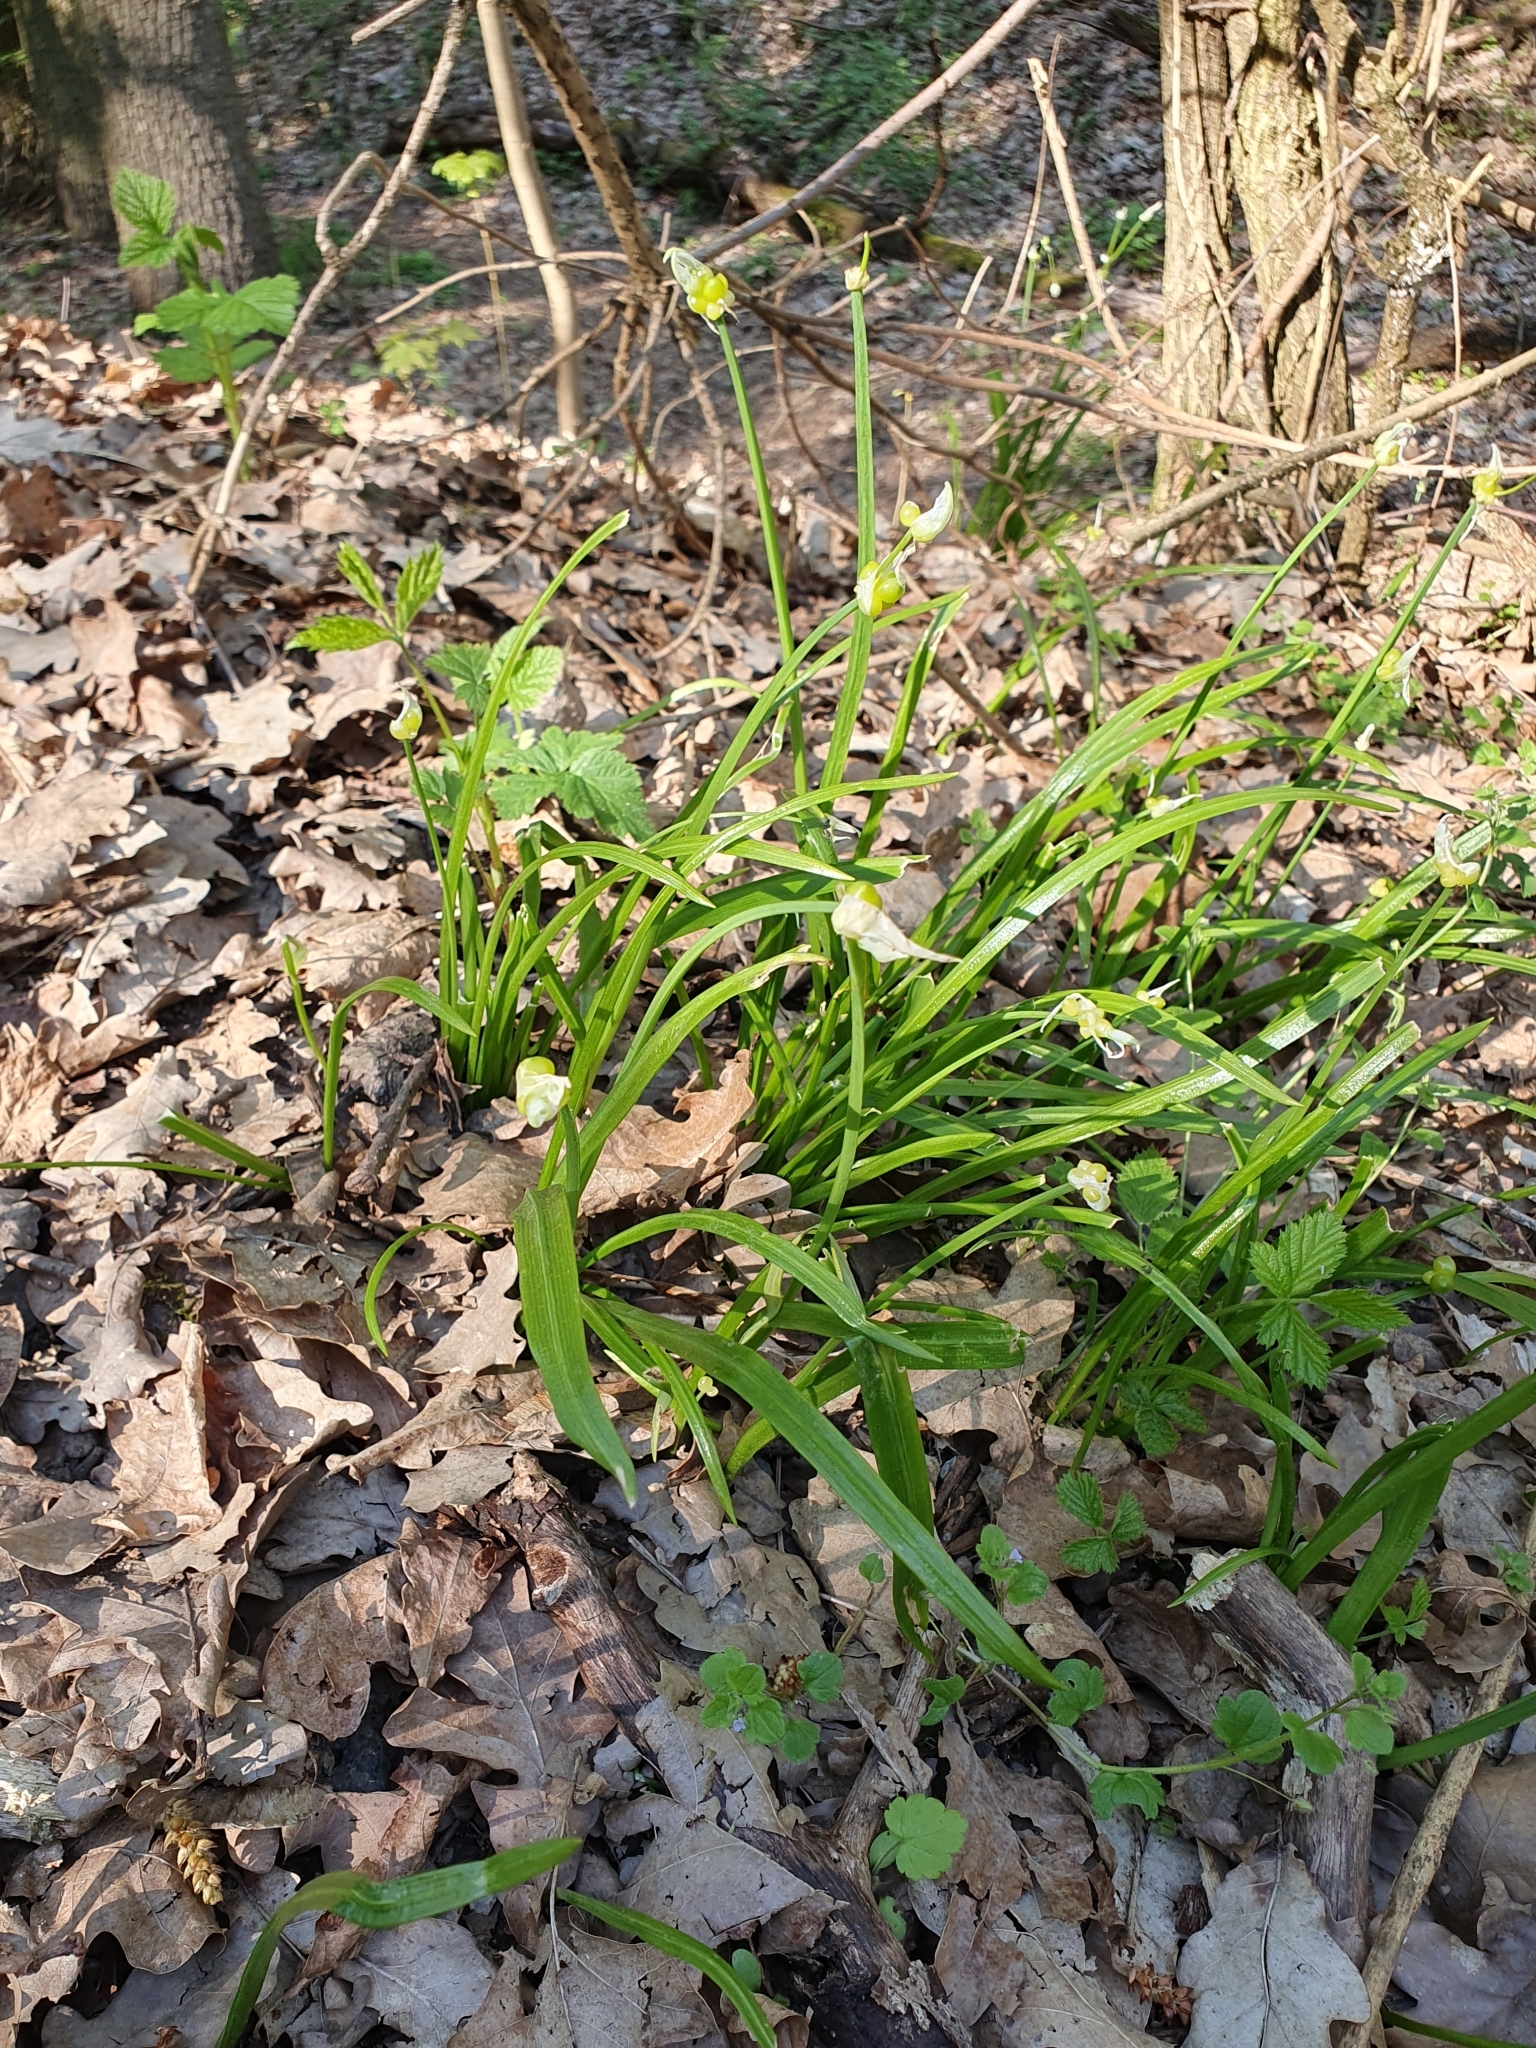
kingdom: Plantae
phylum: Tracheophyta
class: Liliopsida
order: Asparagales
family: Amaryllidaceae
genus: Allium
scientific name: Allium paradoxum
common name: Few-flowered garlic
